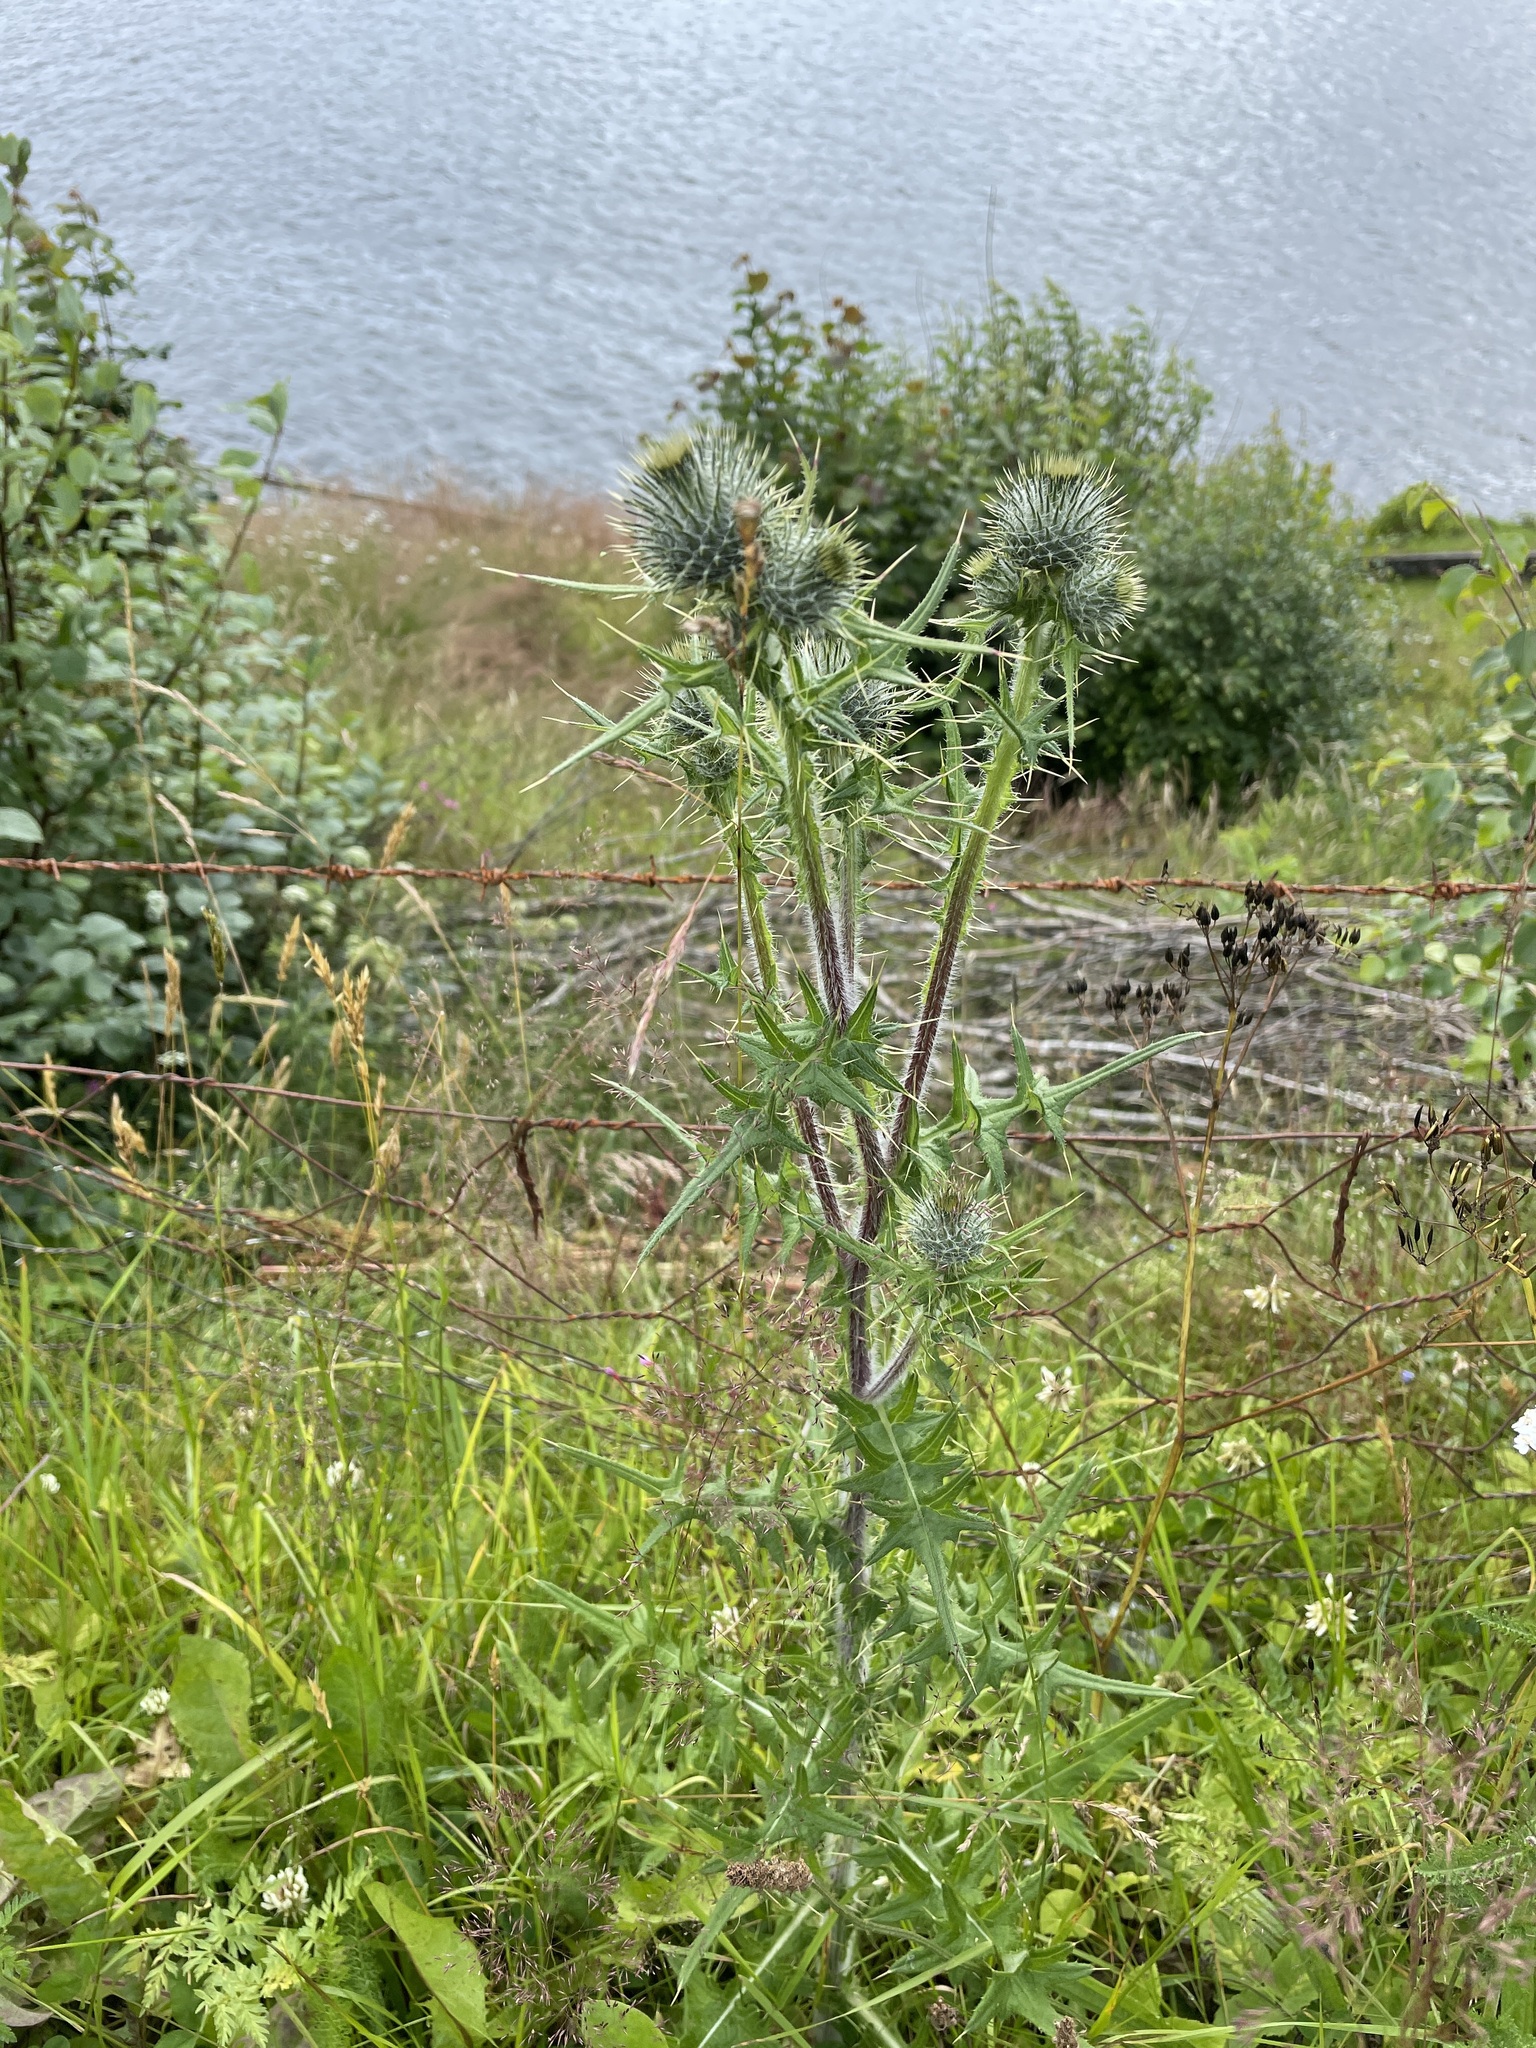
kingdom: Plantae
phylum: Tracheophyta
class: Magnoliopsida
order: Asterales
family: Asteraceae
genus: Cirsium
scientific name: Cirsium vulgare
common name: Bull thistle
